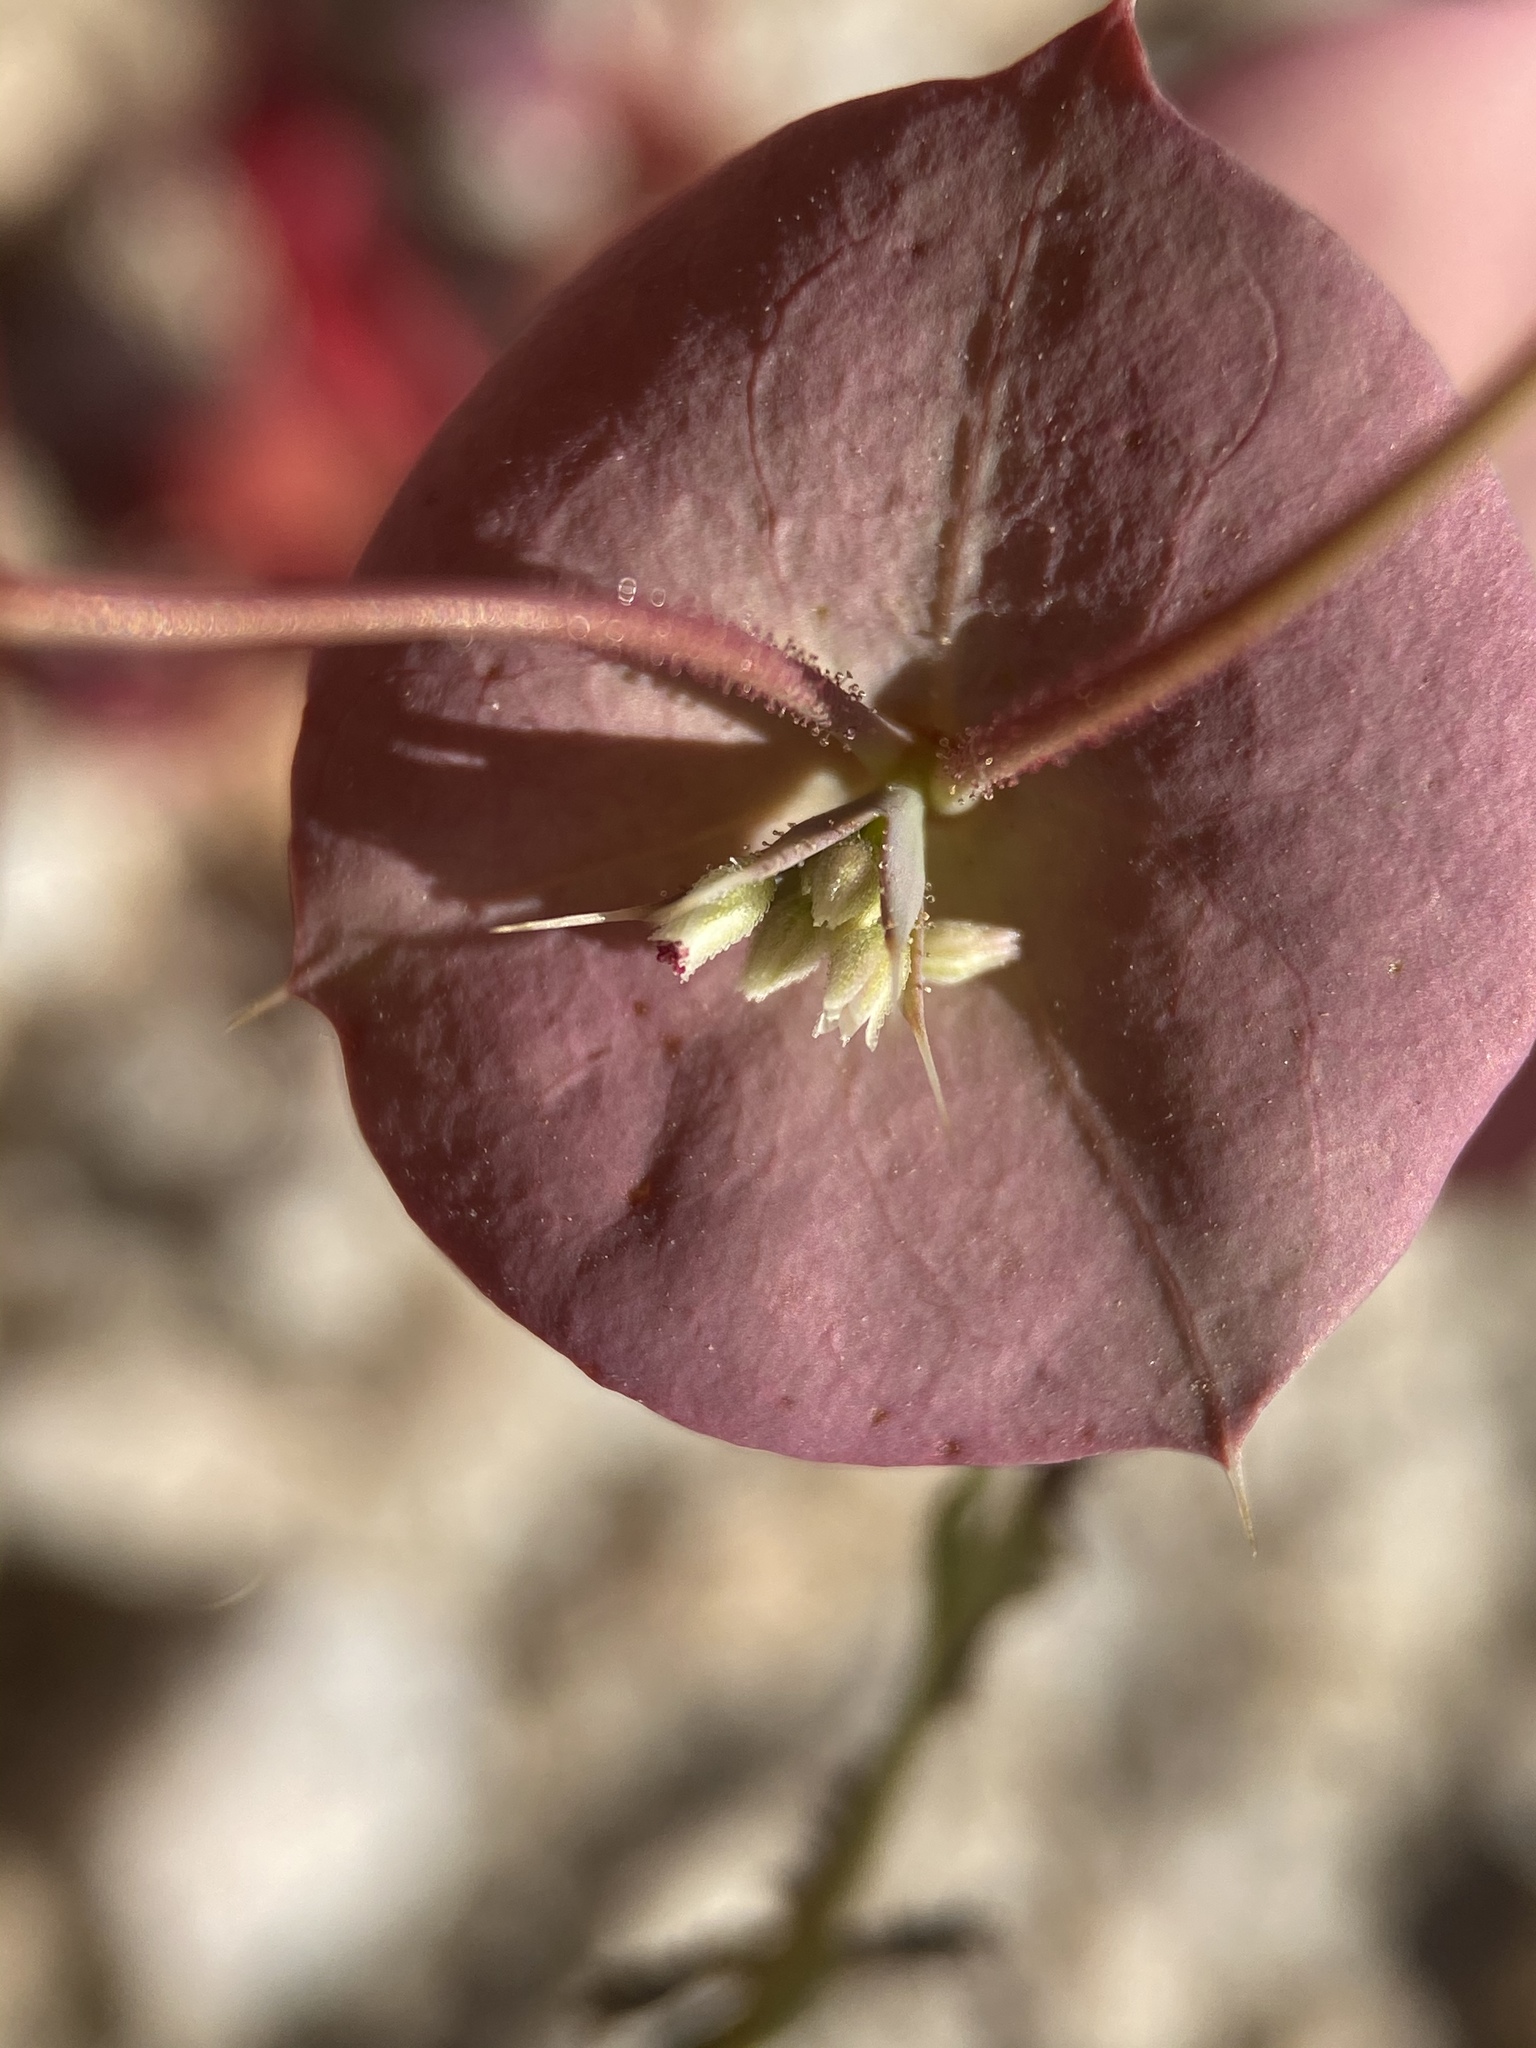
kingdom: Plantae
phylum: Tracheophyta
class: Magnoliopsida
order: Caryophyllales
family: Polygonaceae
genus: Oxytheca
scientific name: Oxytheca perfoliata
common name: Round-leaf puncturebract
